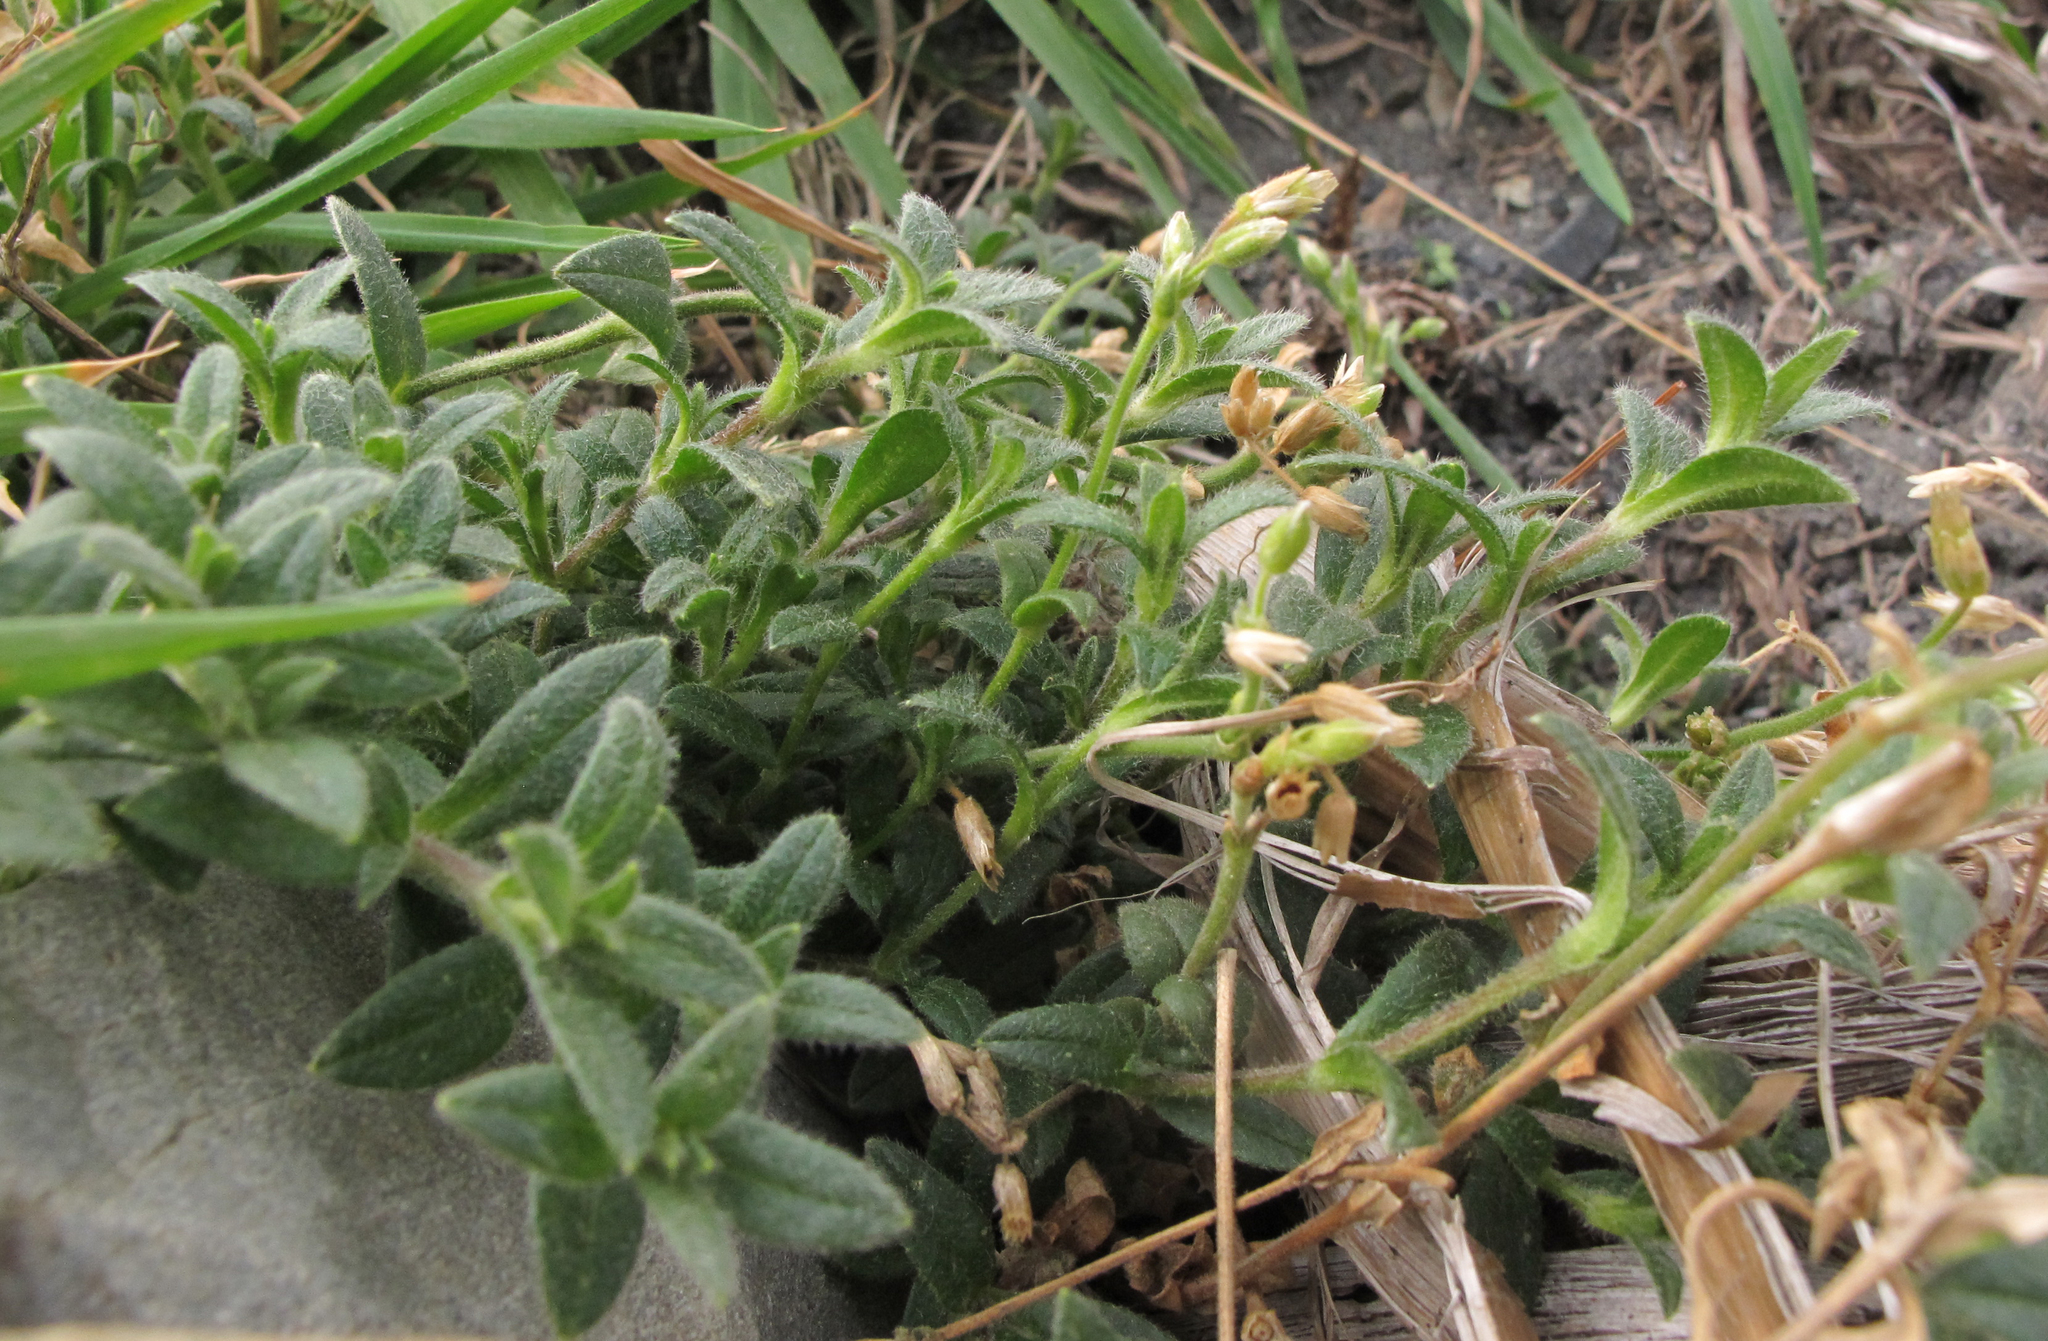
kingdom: Plantae
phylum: Tracheophyta
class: Magnoliopsida
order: Caryophyllales
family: Caryophyllaceae
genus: Cerastium
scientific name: Cerastium fontanum
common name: Common mouse-ear
